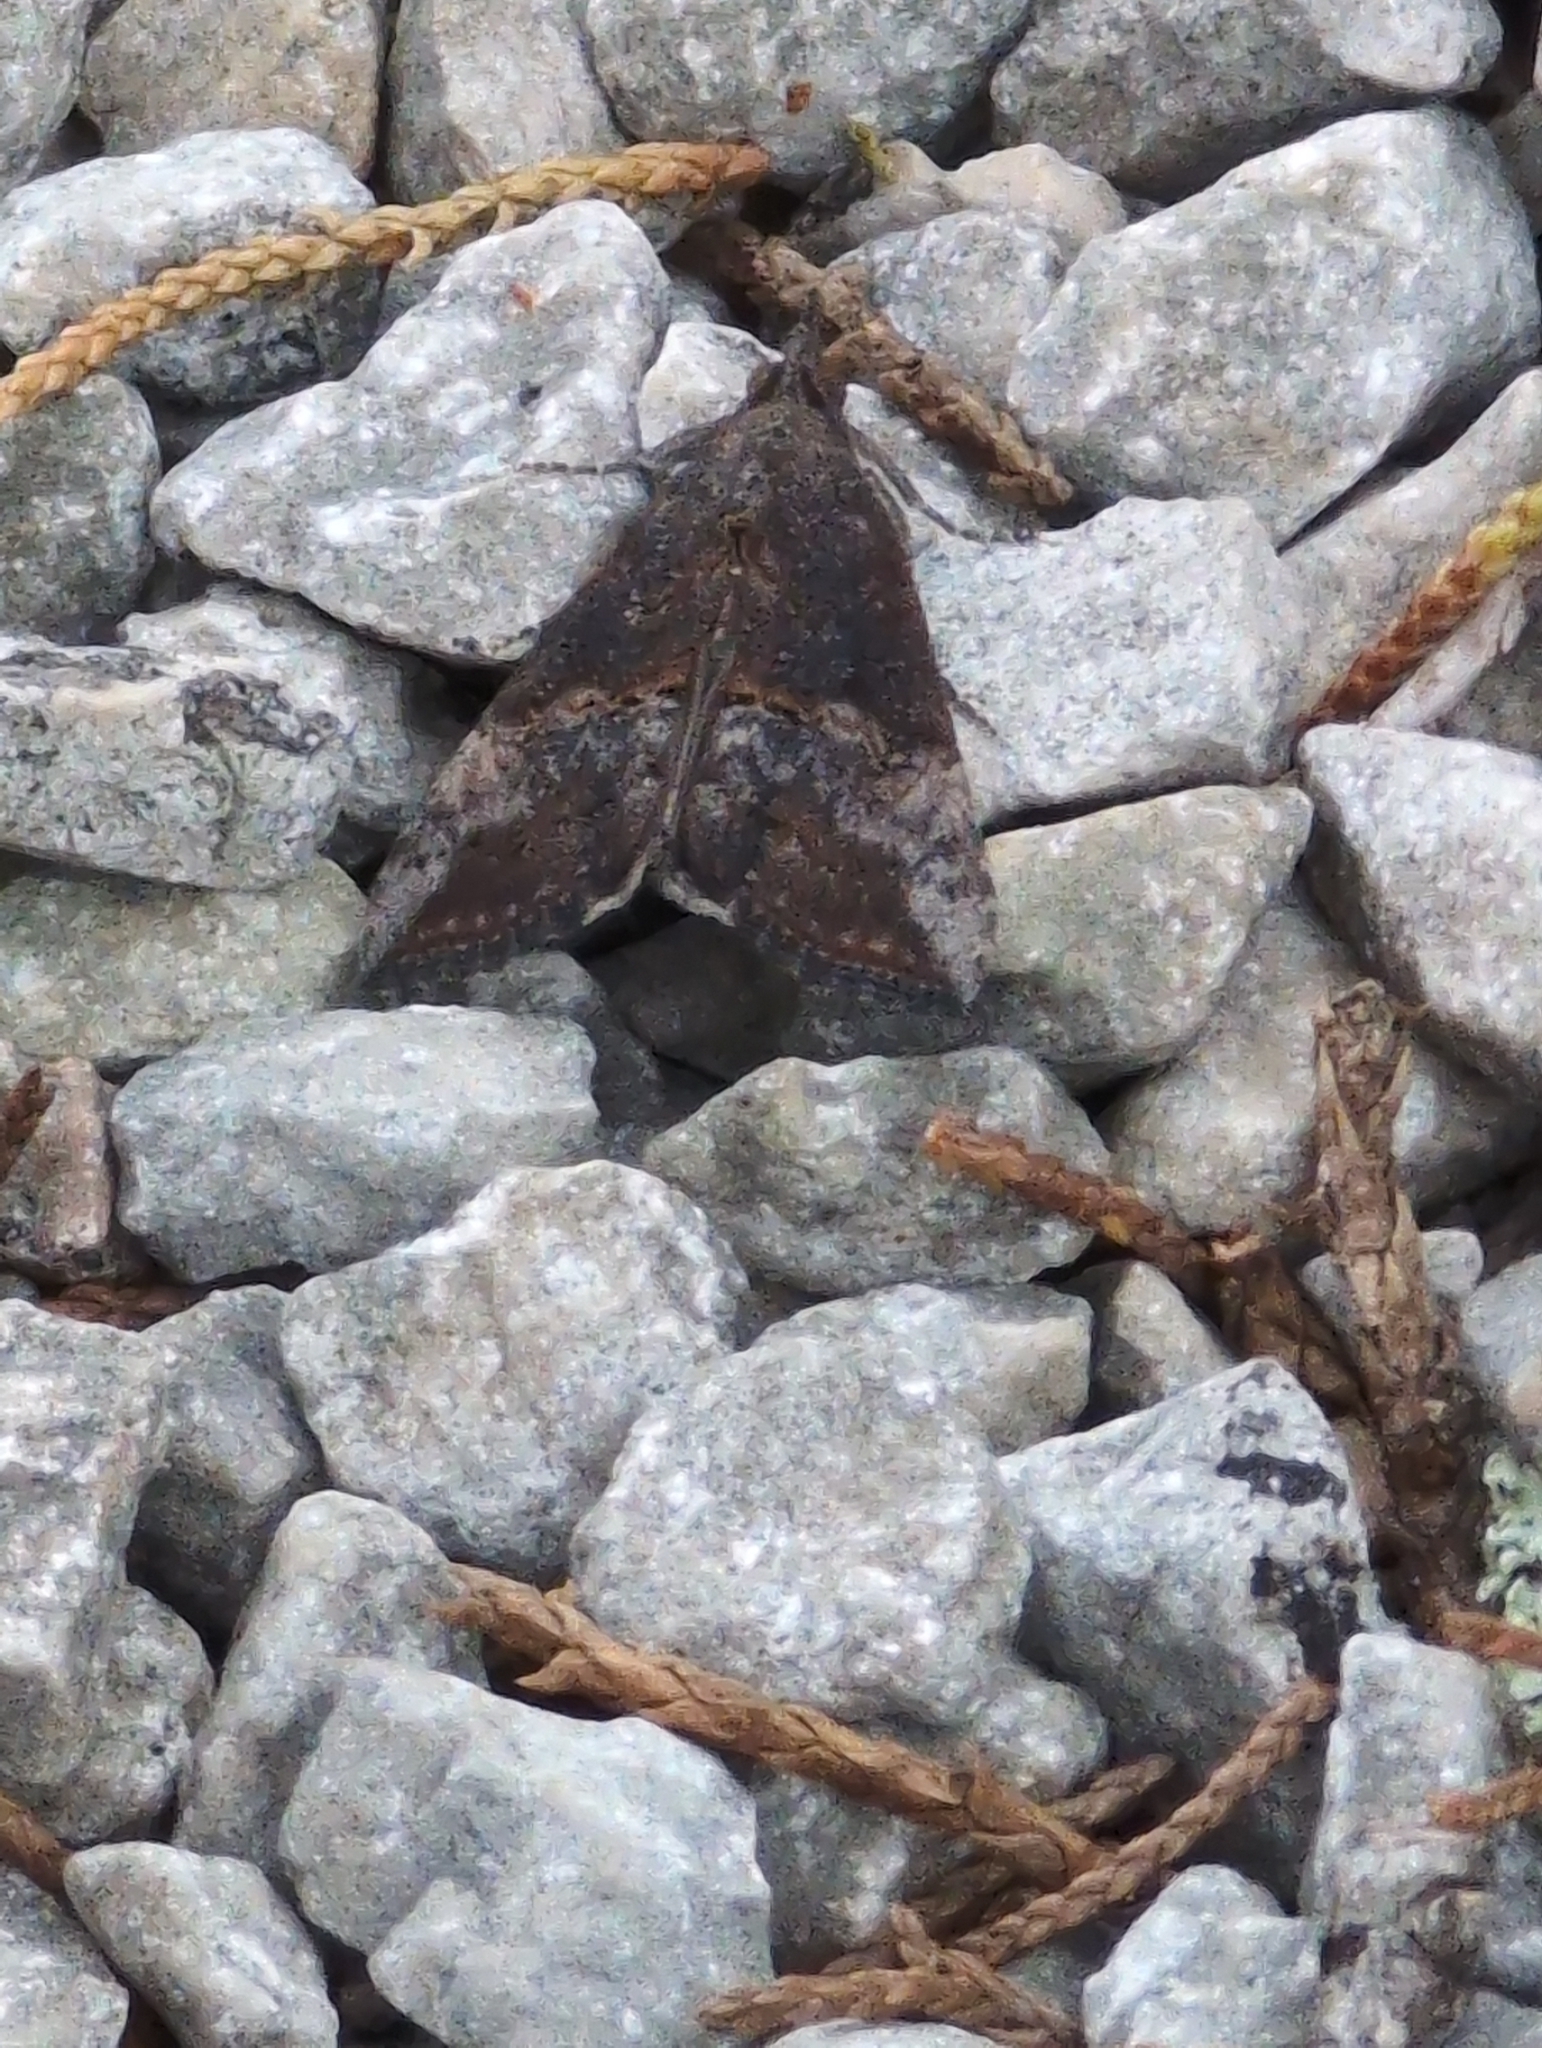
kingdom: Animalia
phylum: Arthropoda
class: Insecta
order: Lepidoptera
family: Erebidae
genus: Hypena
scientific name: Hypena scabra
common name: Green cloverworm
